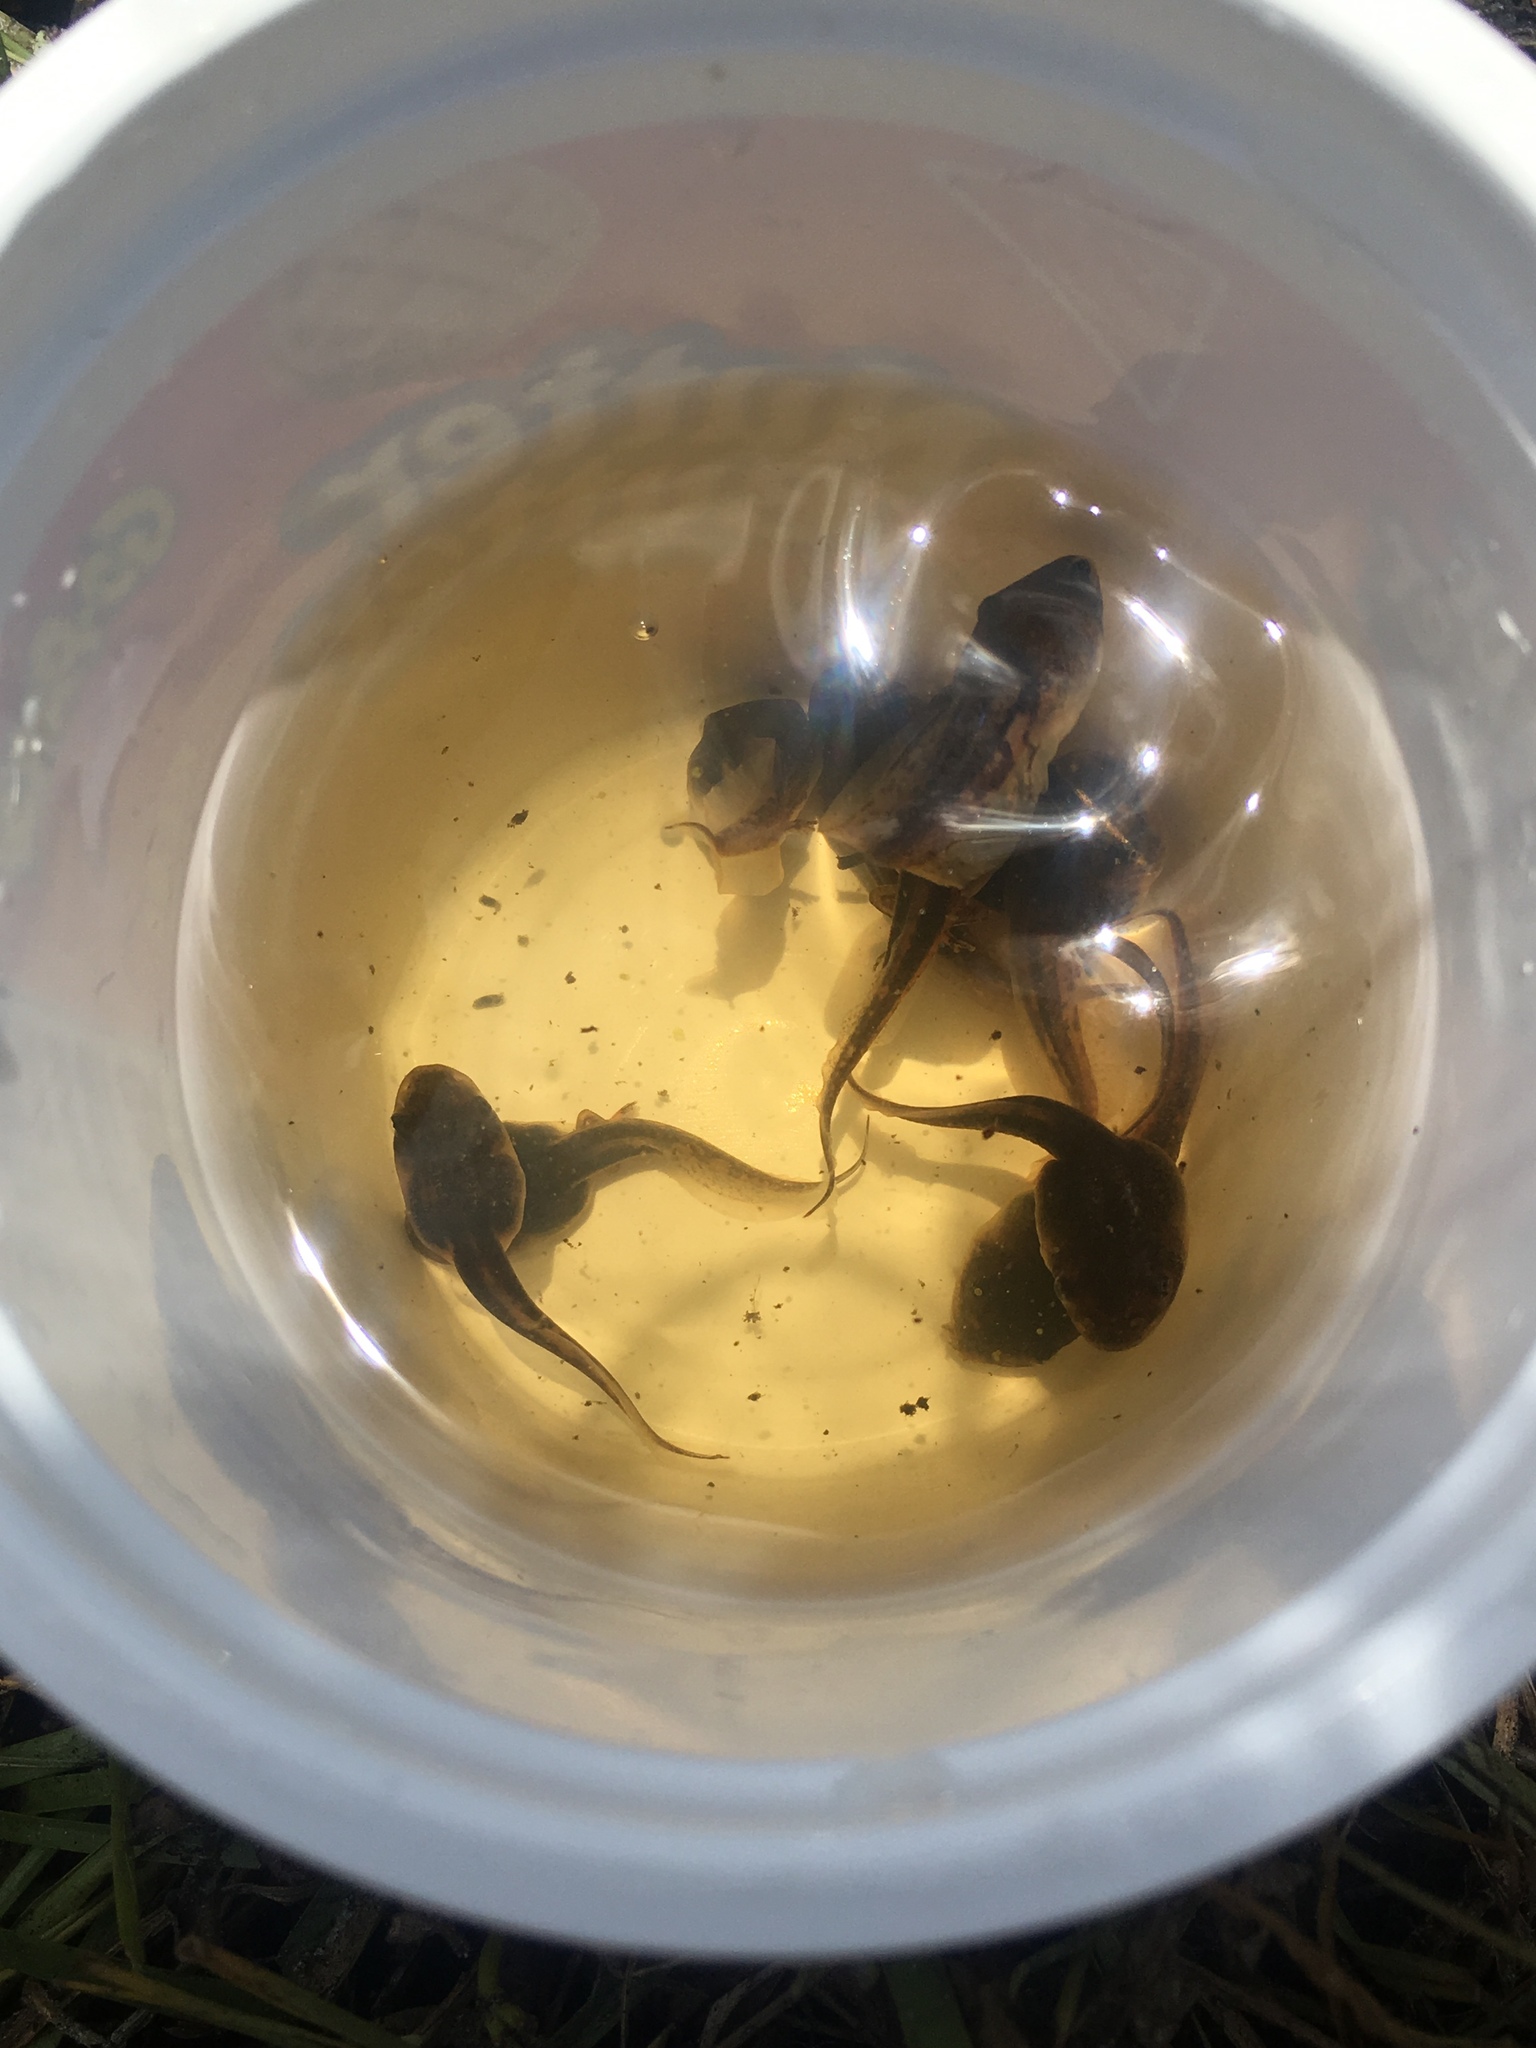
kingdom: Animalia
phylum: Chordata
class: Amphibia
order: Anura
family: Hylidae
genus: Osteopilus
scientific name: Osteopilus septentrionalis
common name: Cuban treefrog
